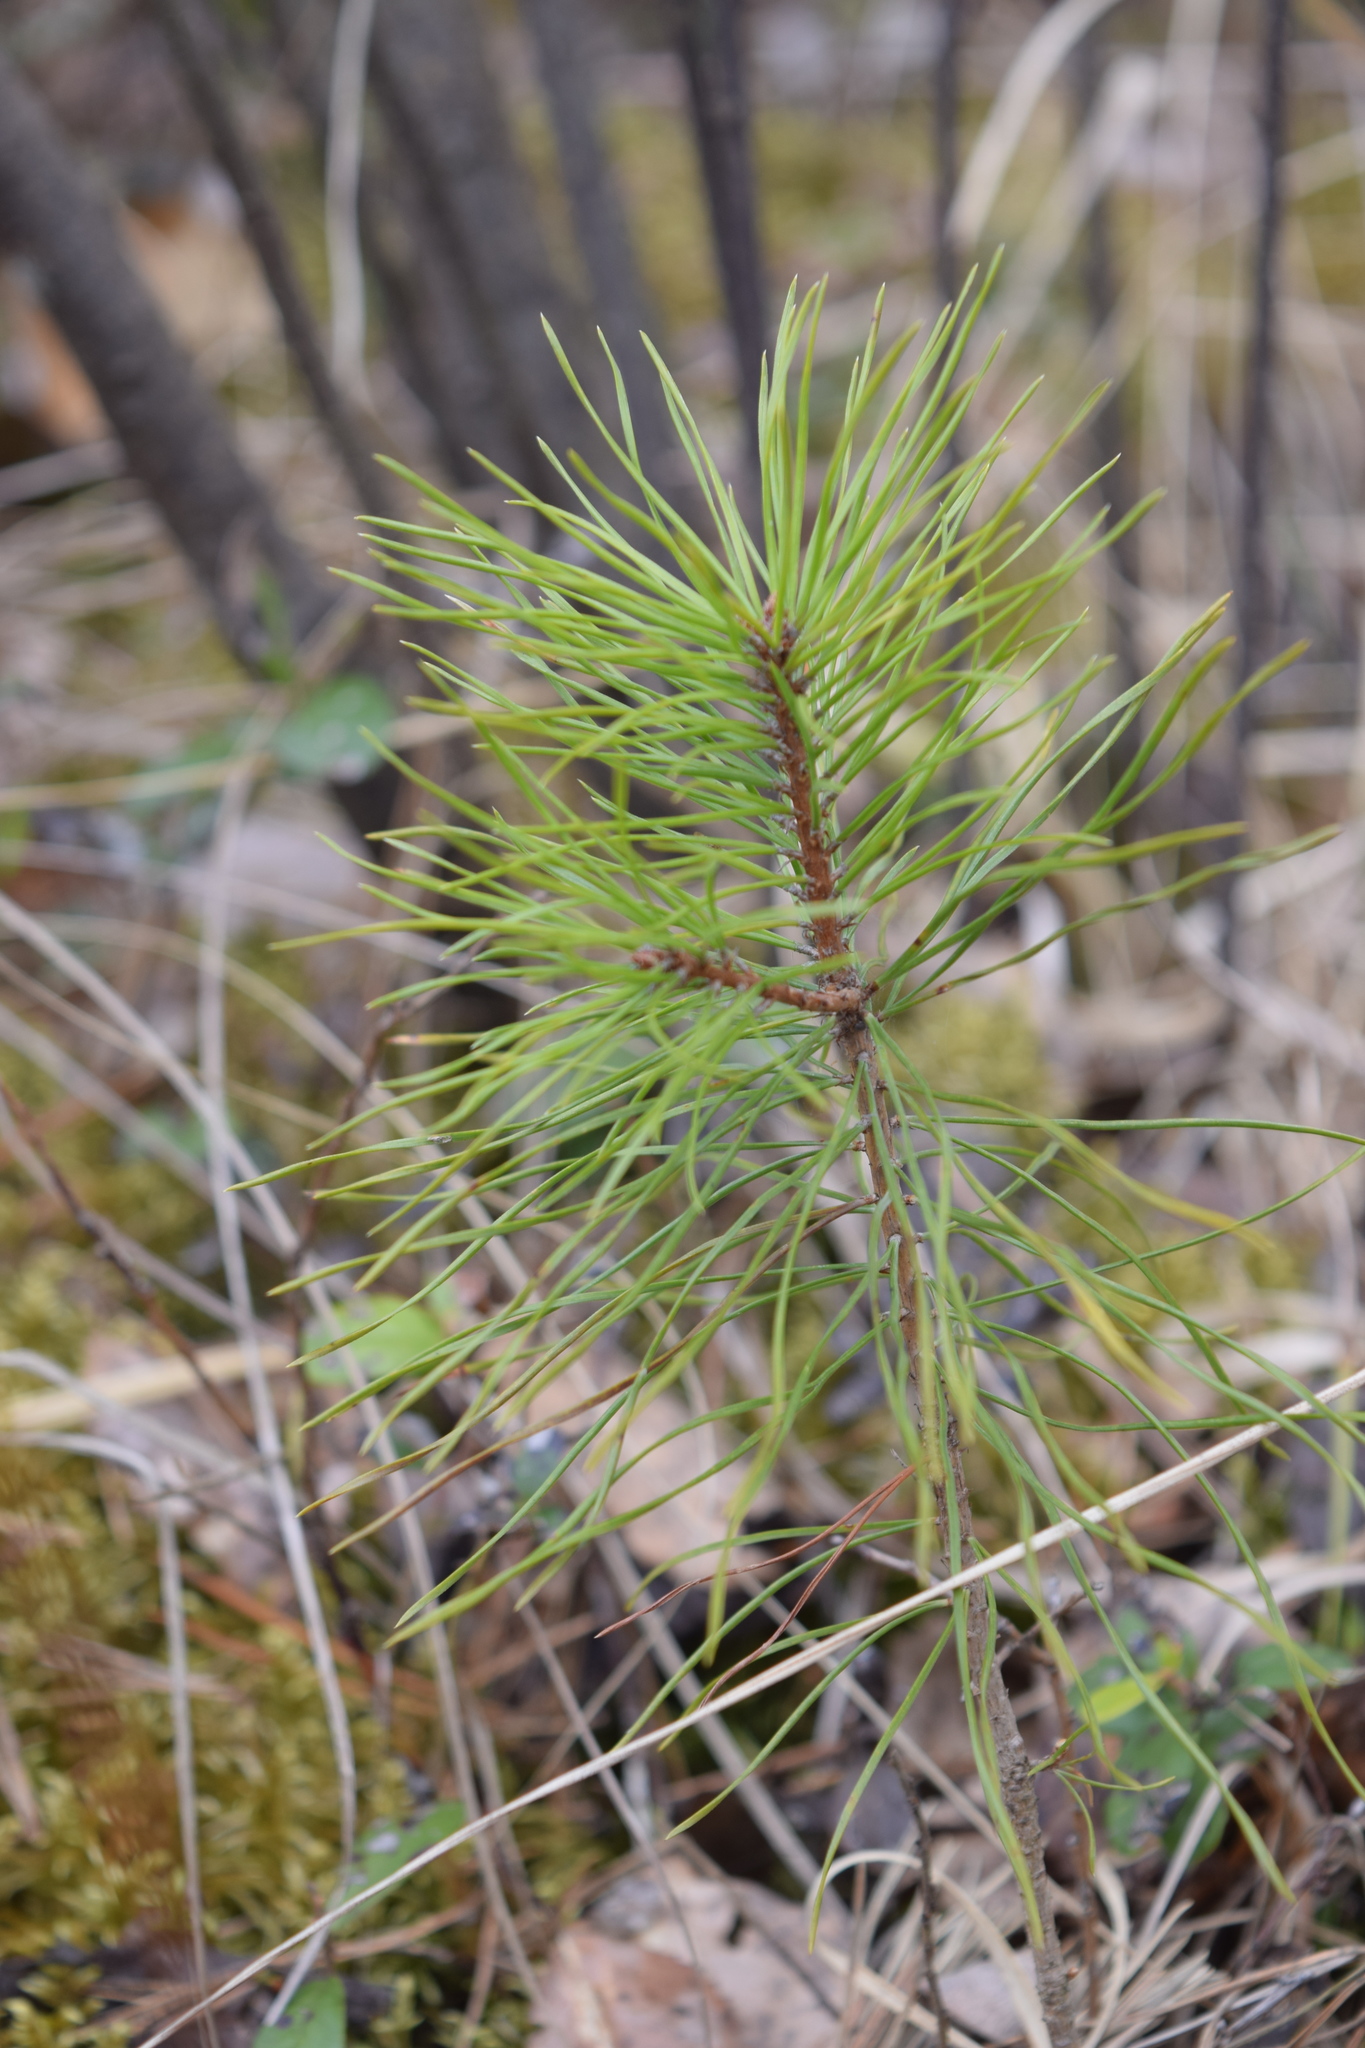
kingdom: Plantae
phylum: Tracheophyta
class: Pinopsida
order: Pinales
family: Pinaceae
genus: Pinus
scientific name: Pinus sylvestris
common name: Scots pine
